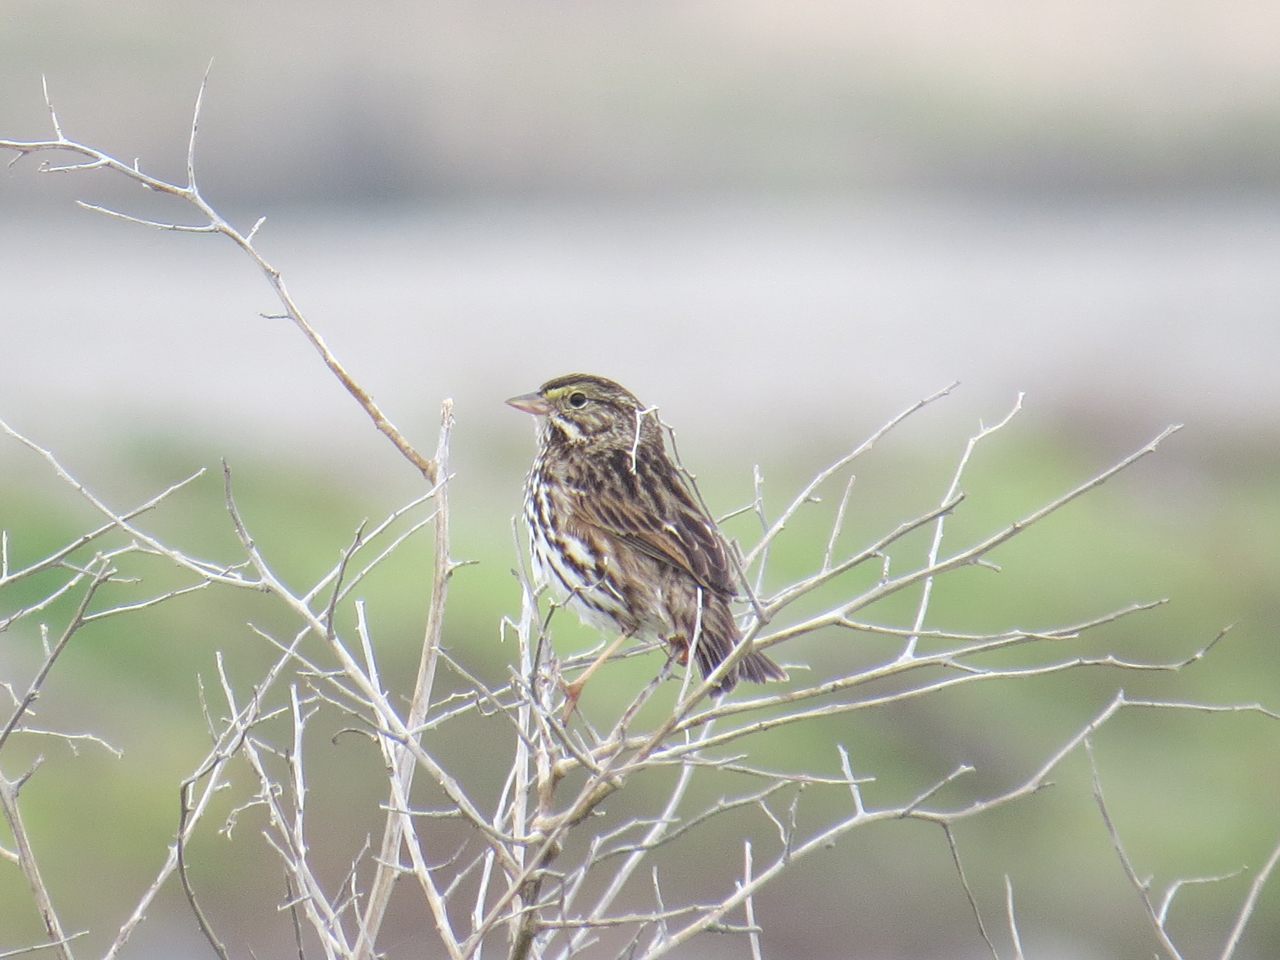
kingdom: Animalia
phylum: Chordata
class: Aves
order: Passeriformes
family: Passerellidae
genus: Passerculus
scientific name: Passerculus sandwichensis
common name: Savannah sparrow
